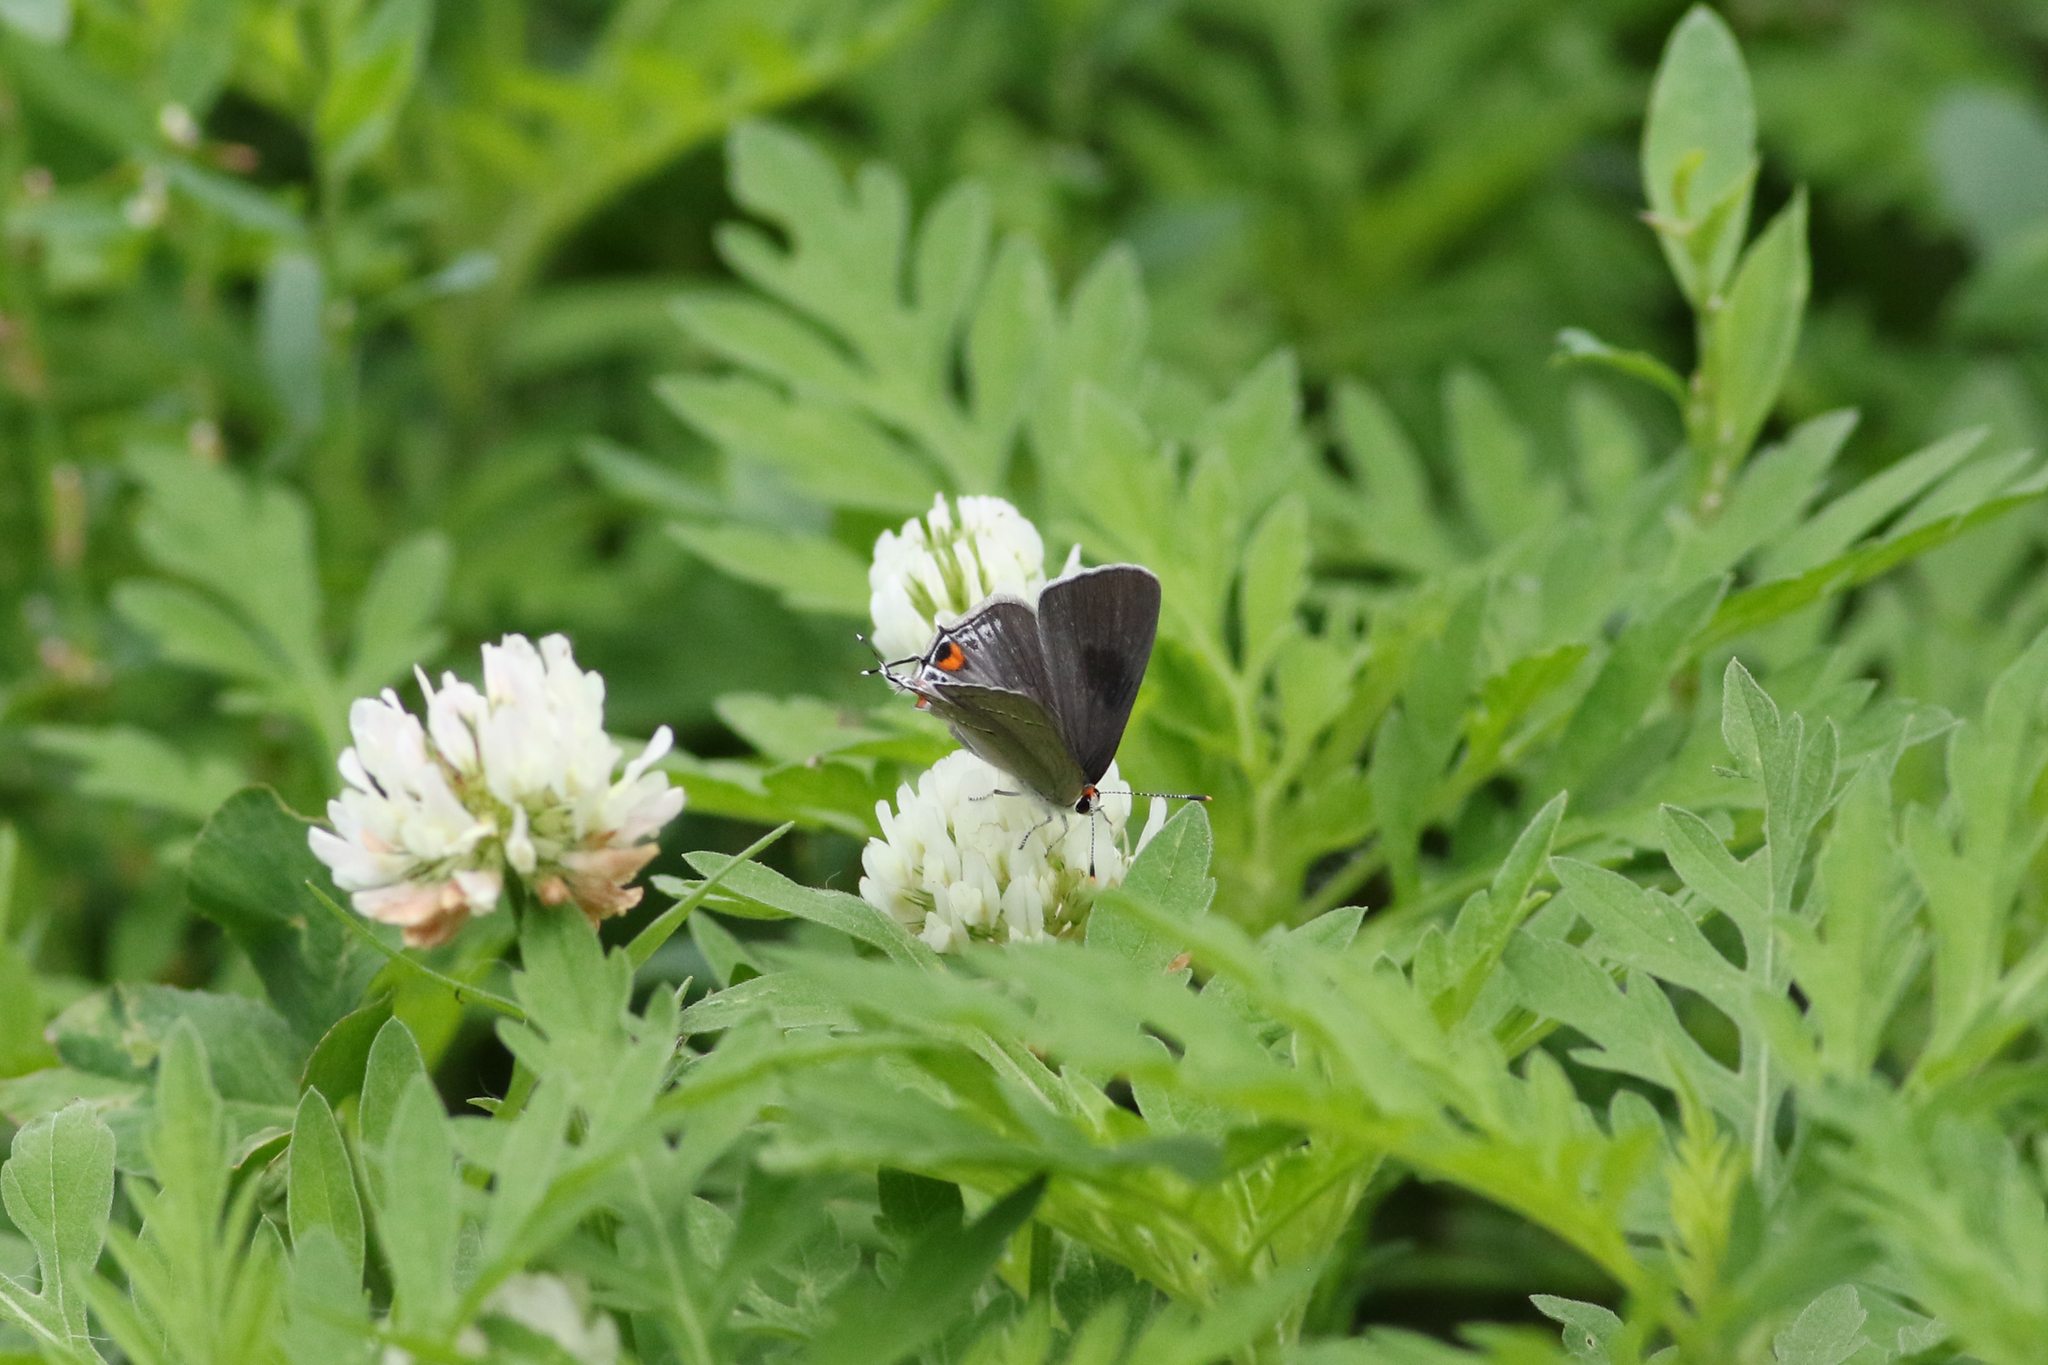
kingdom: Animalia
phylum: Arthropoda
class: Insecta
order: Lepidoptera
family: Lycaenidae
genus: Strymon
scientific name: Strymon melinus
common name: Gray hairstreak
